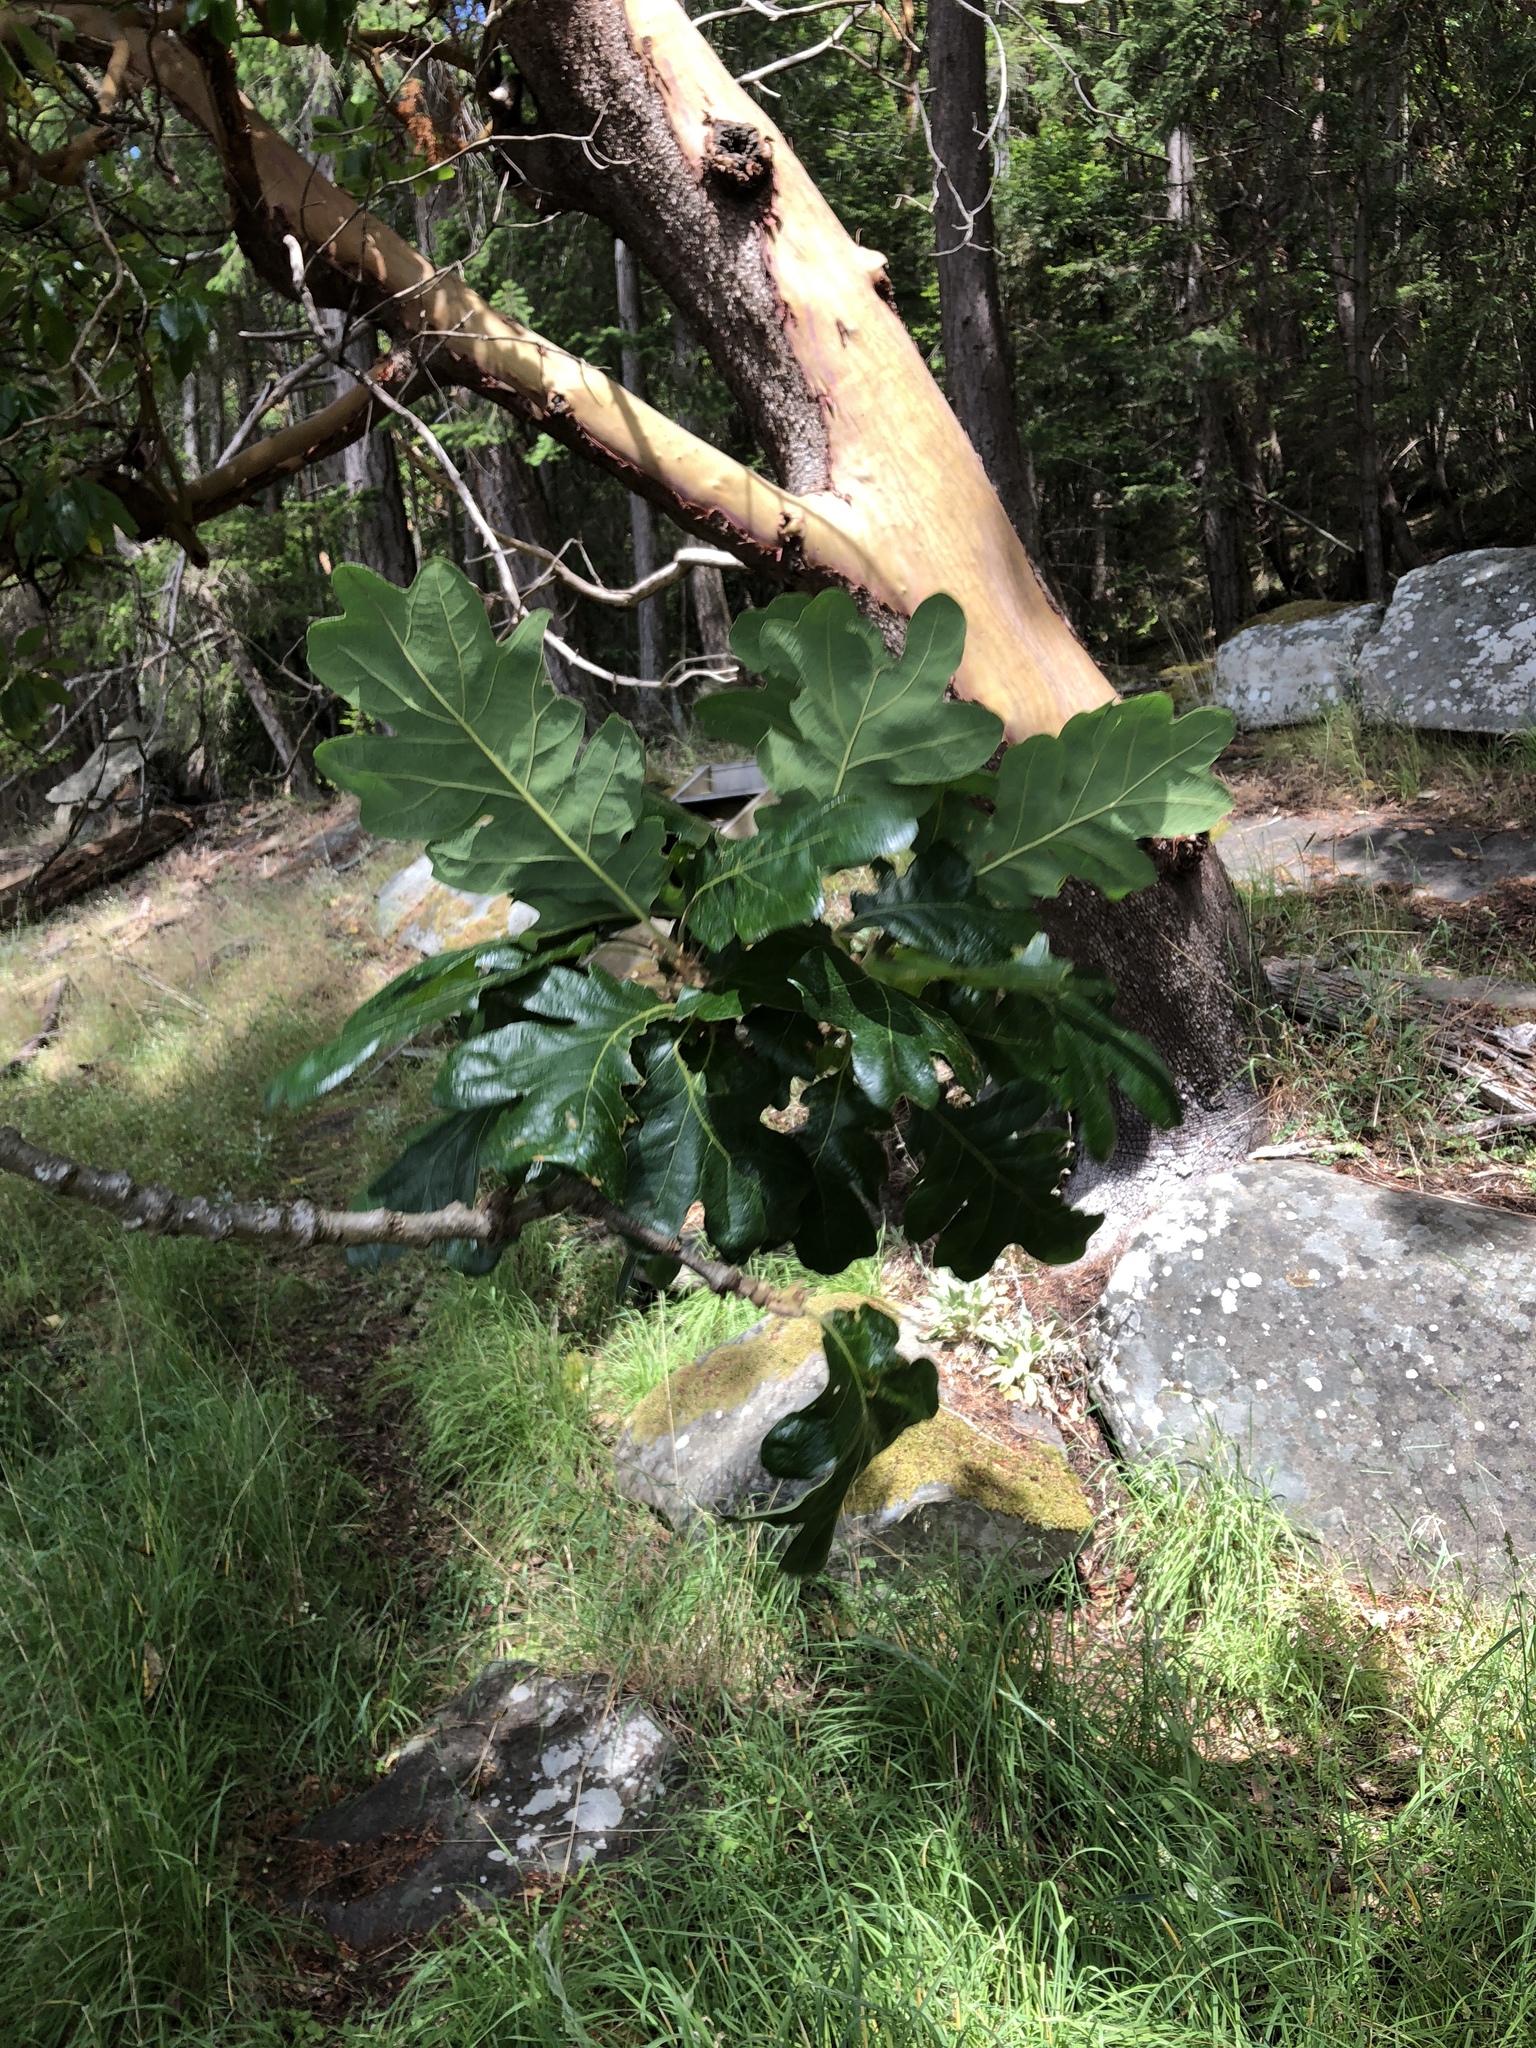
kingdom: Plantae
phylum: Tracheophyta
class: Magnoliopsida
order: Fagales
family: Fagaceae
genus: Quercus
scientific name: Quercus garryana
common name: Garry oak
